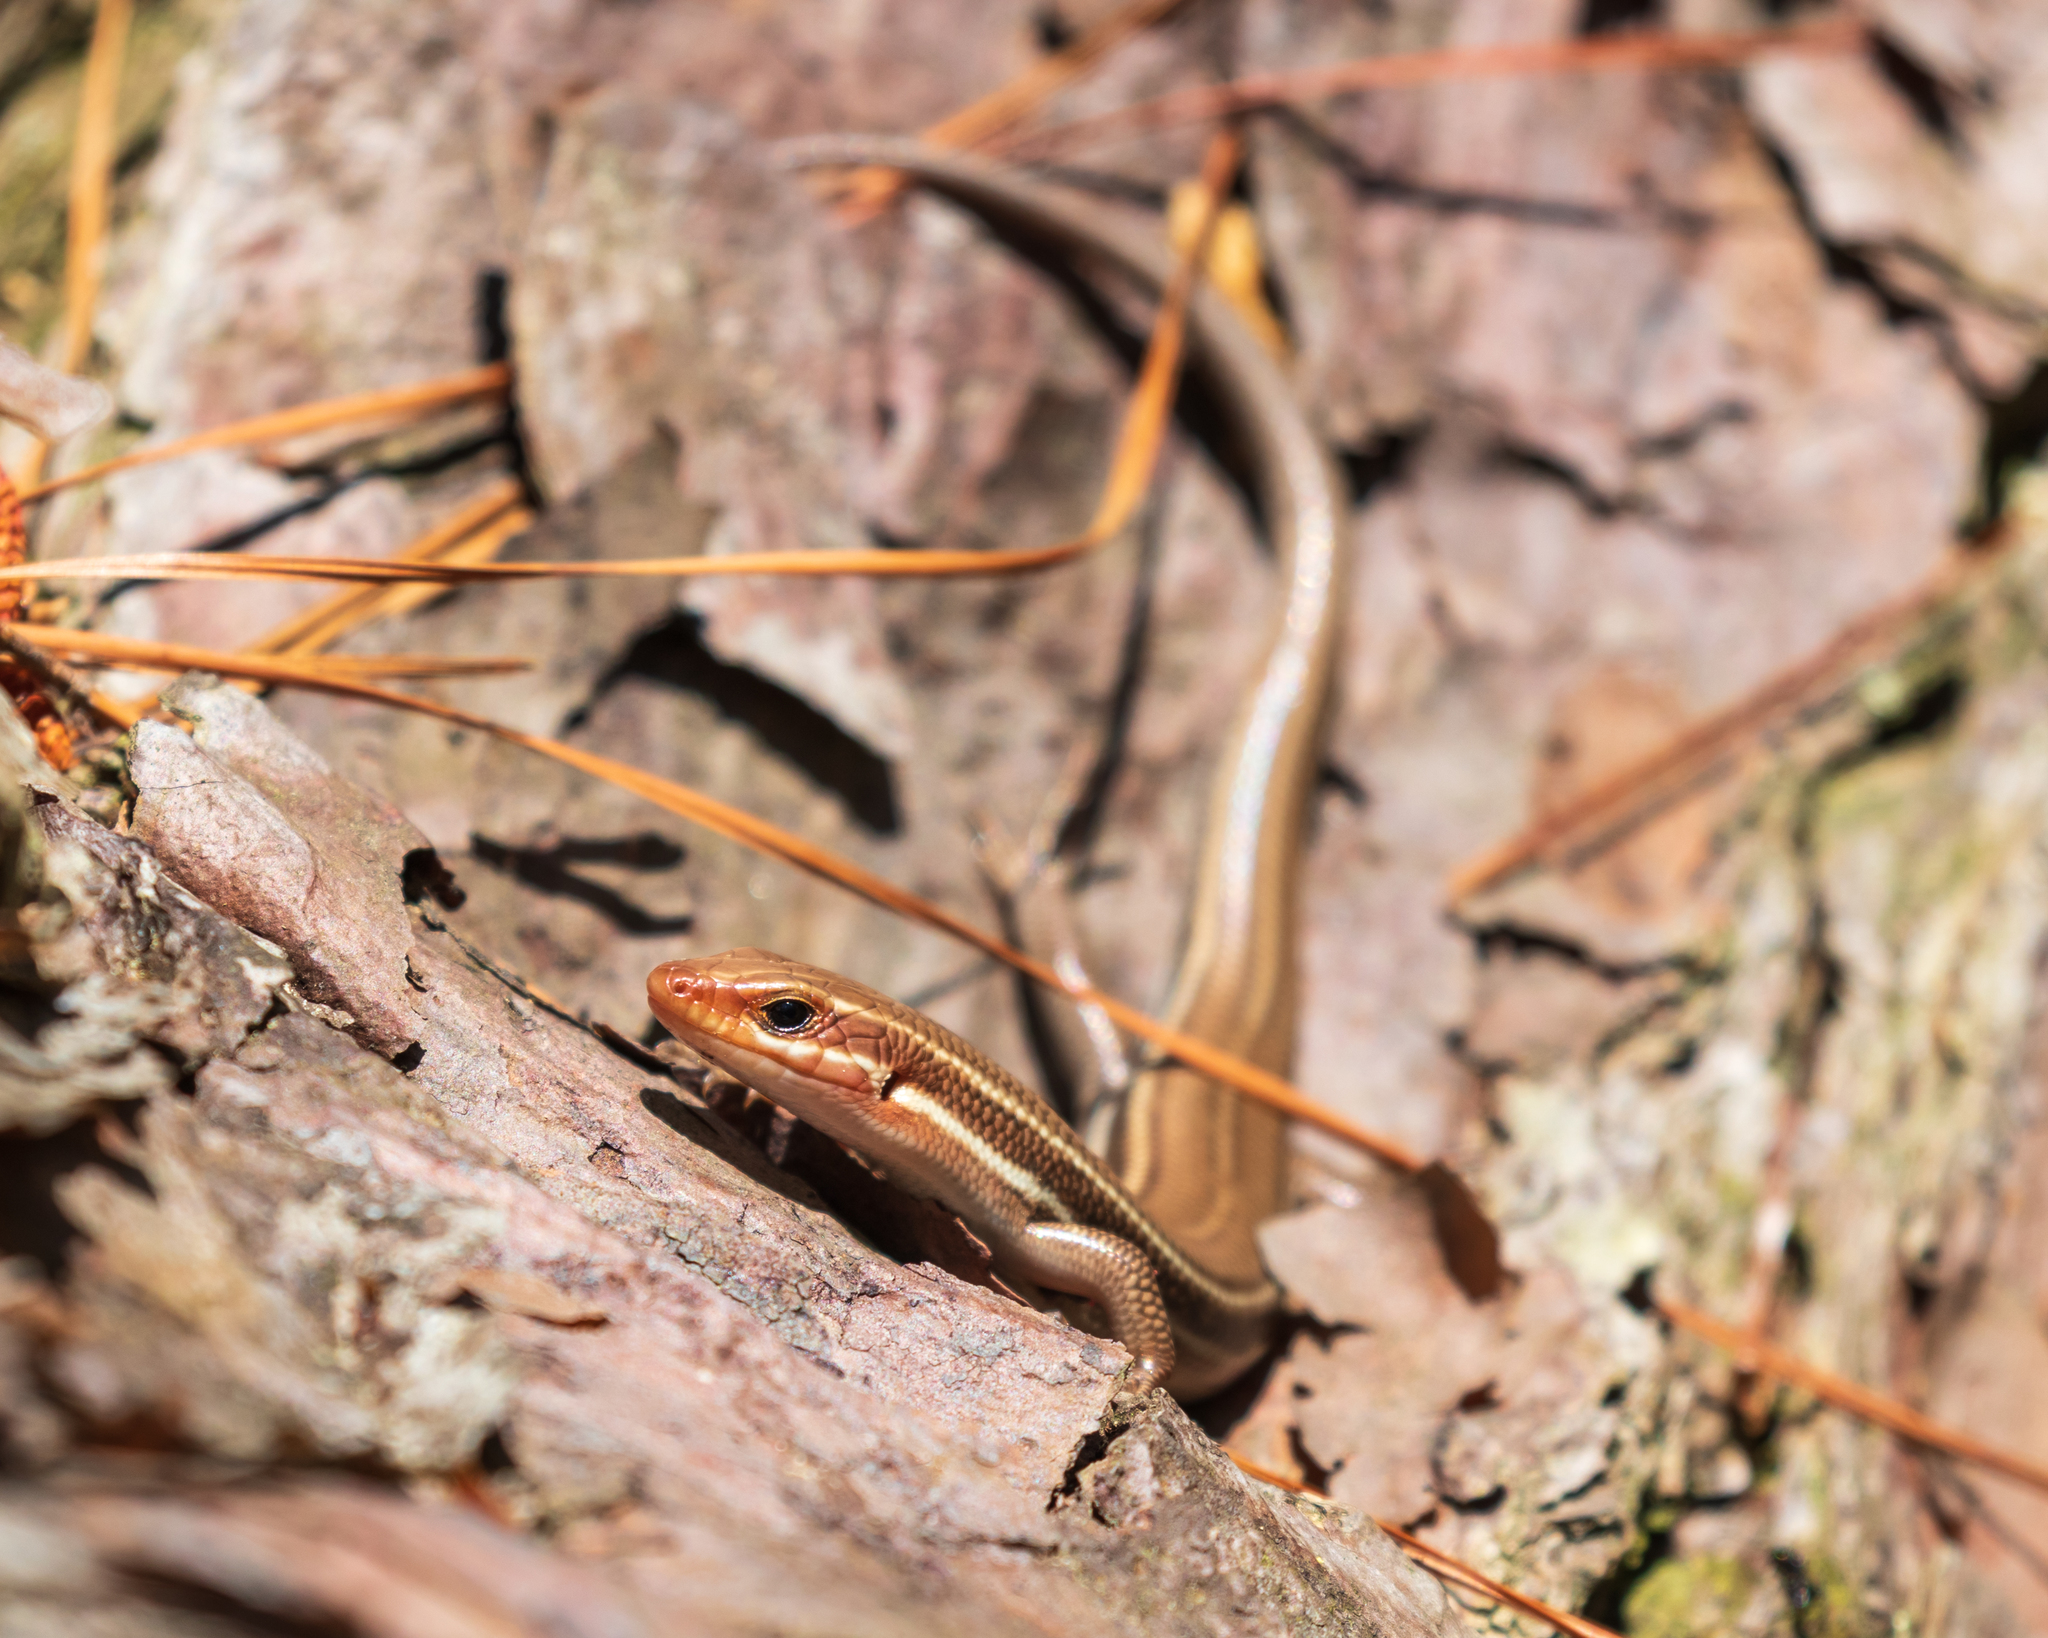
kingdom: Animalia
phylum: Chordata
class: Squamata
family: Scincidae
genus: Plestiodon
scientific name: Plestiodon inexpectatus
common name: Southeastern five-lined skink
